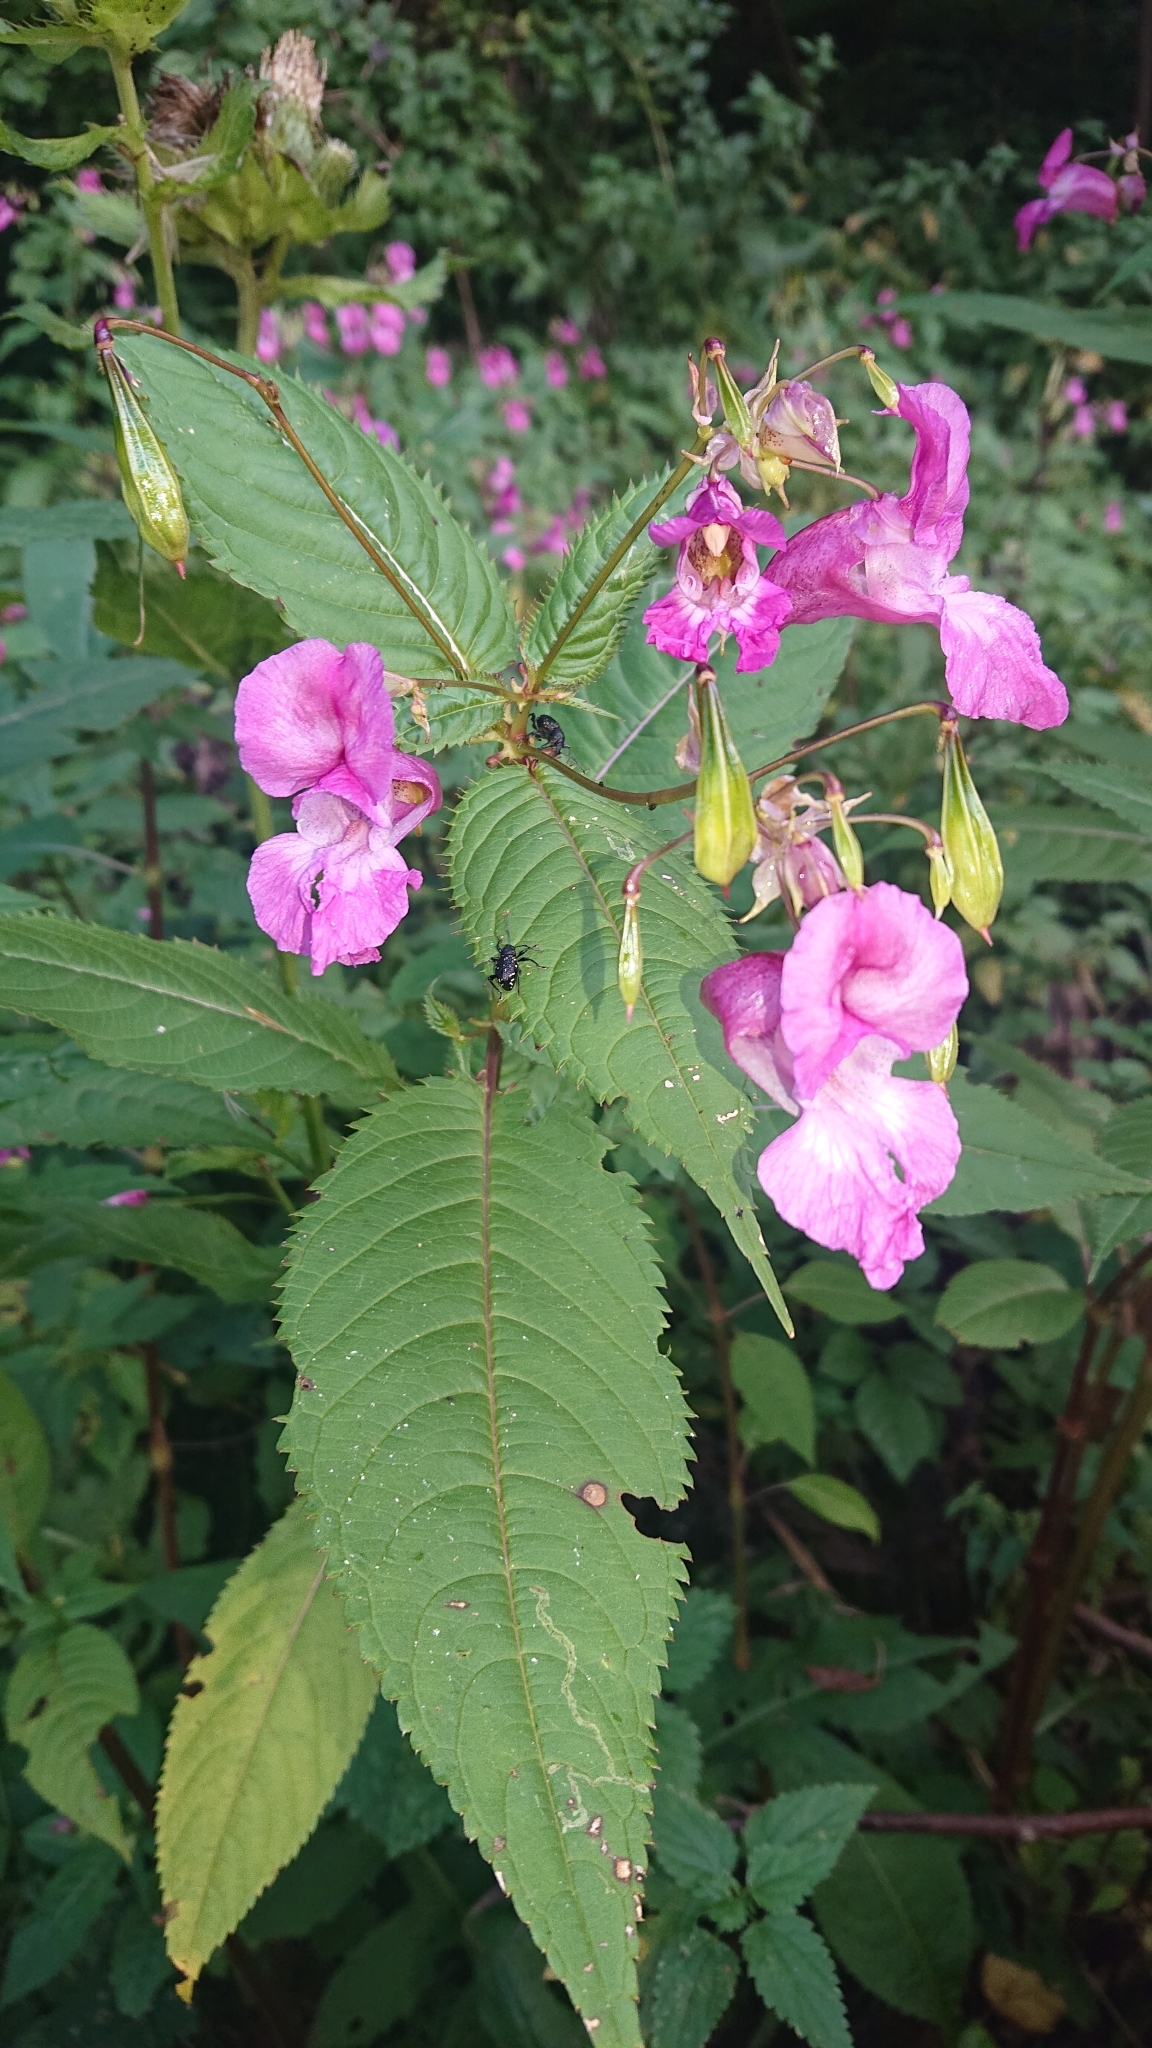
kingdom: Plantae
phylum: Tracheophyta
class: Magnoliopsida
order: Ericales
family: Balsaminaceae
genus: Impatiens
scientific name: Impatiens glandulifera
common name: Himalayan balsam
